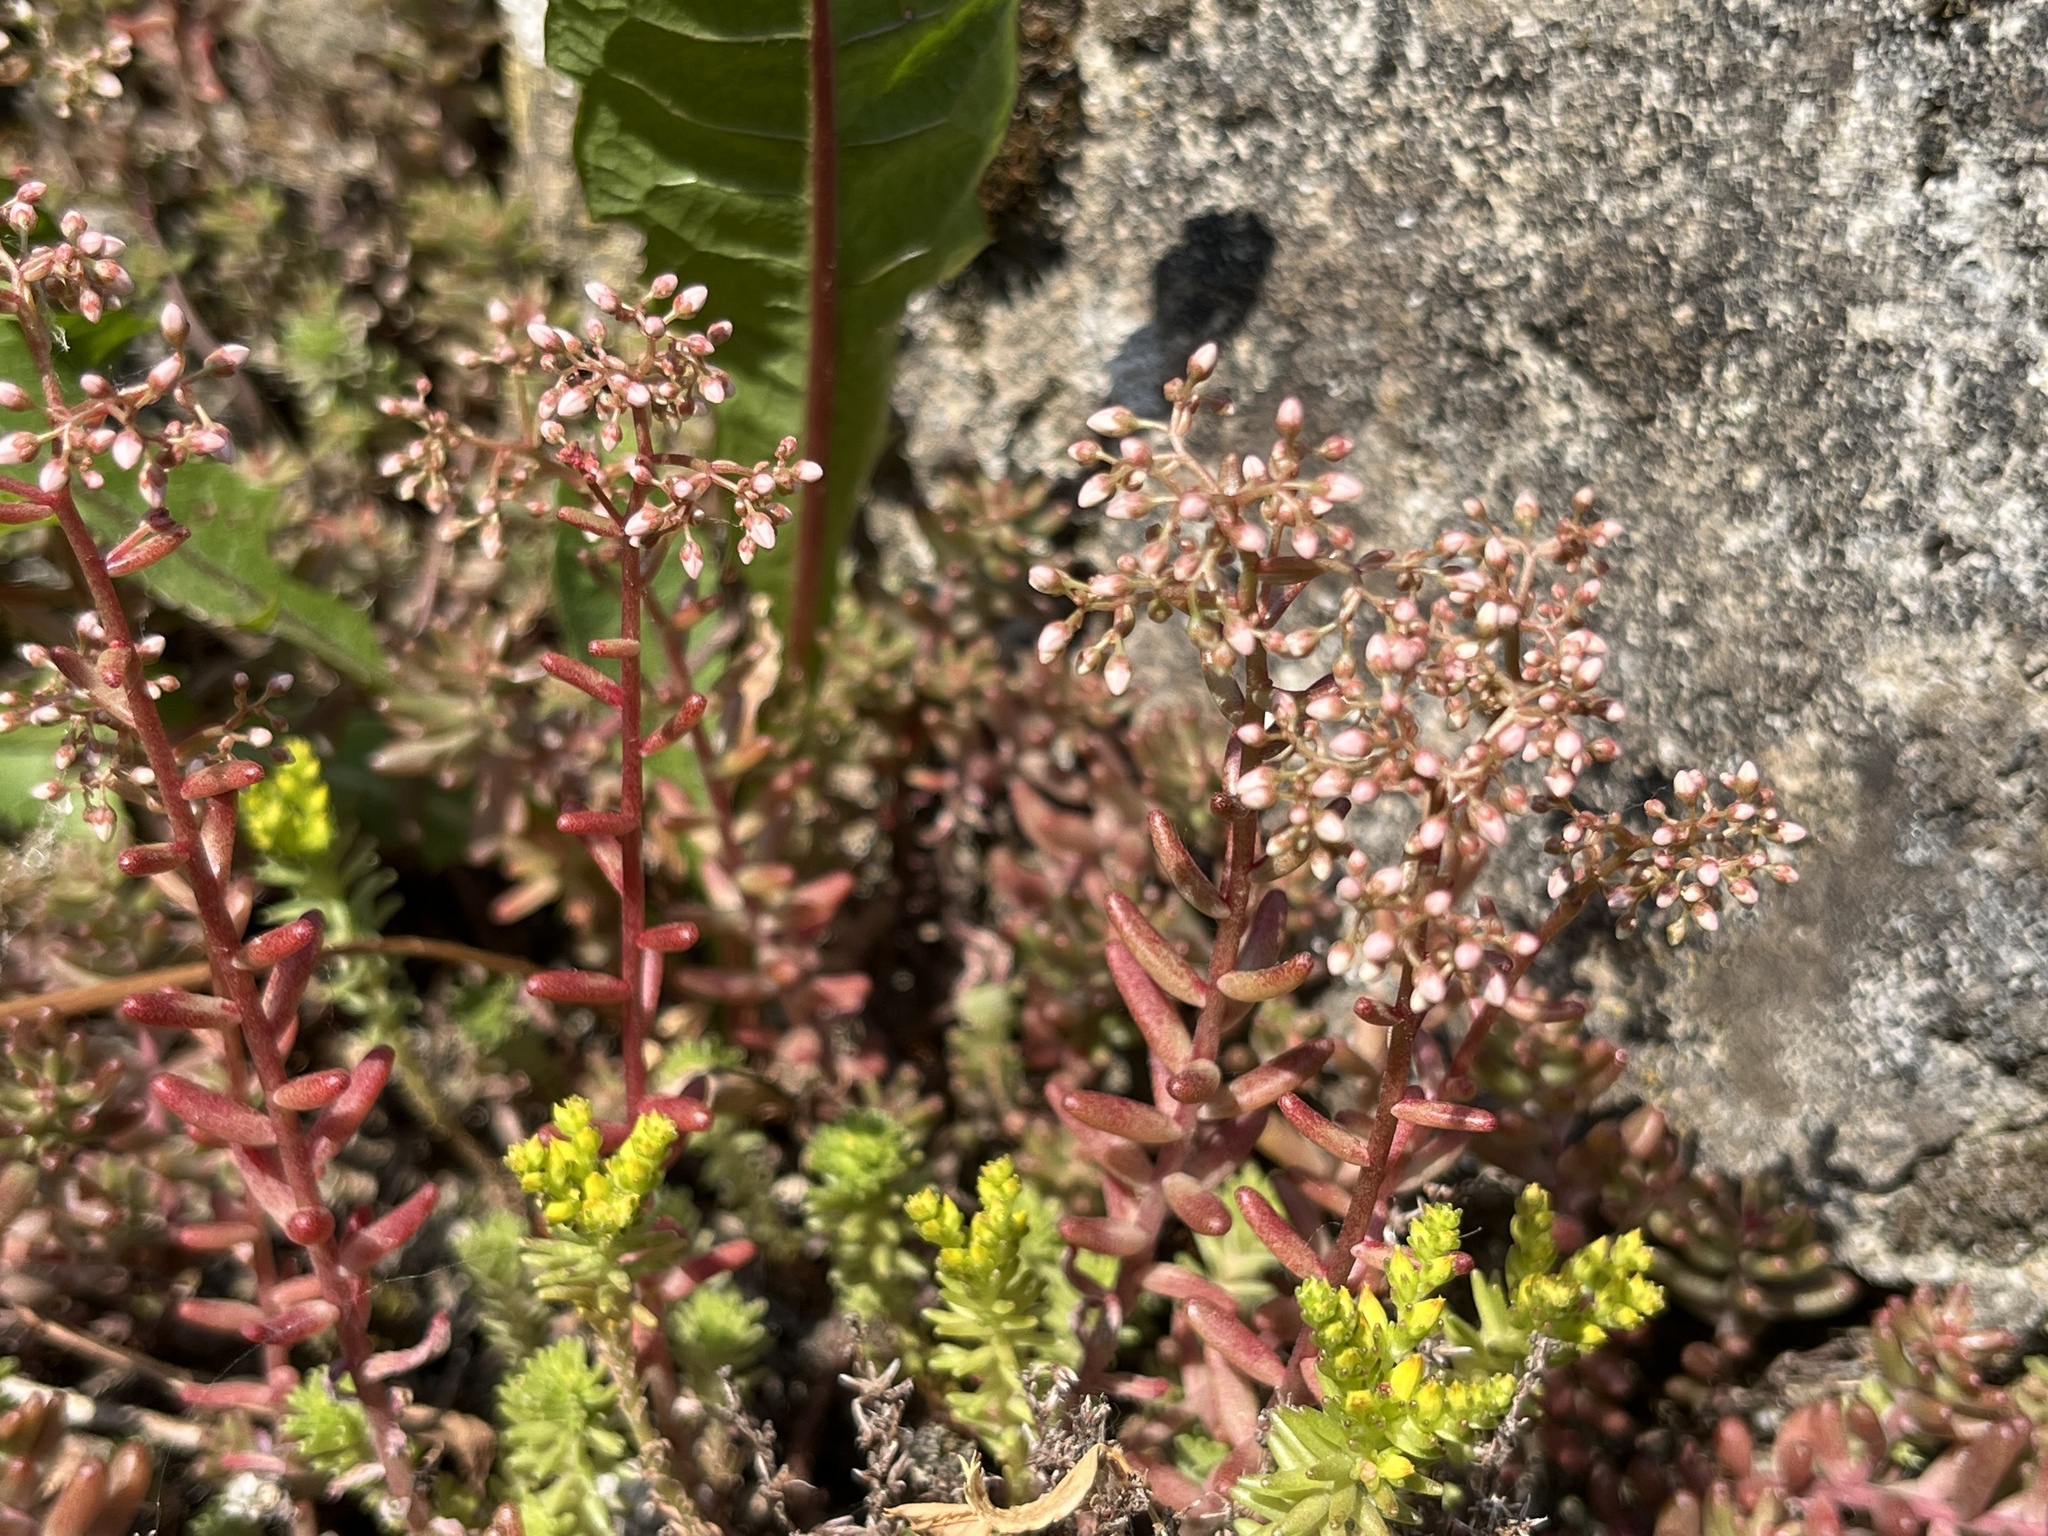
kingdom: Plantae
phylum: Tracheophyta
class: Magnoliopsida
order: Saxifragales
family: Crassulaceae
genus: Sedum
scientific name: Sedum album
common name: White stonecrop
